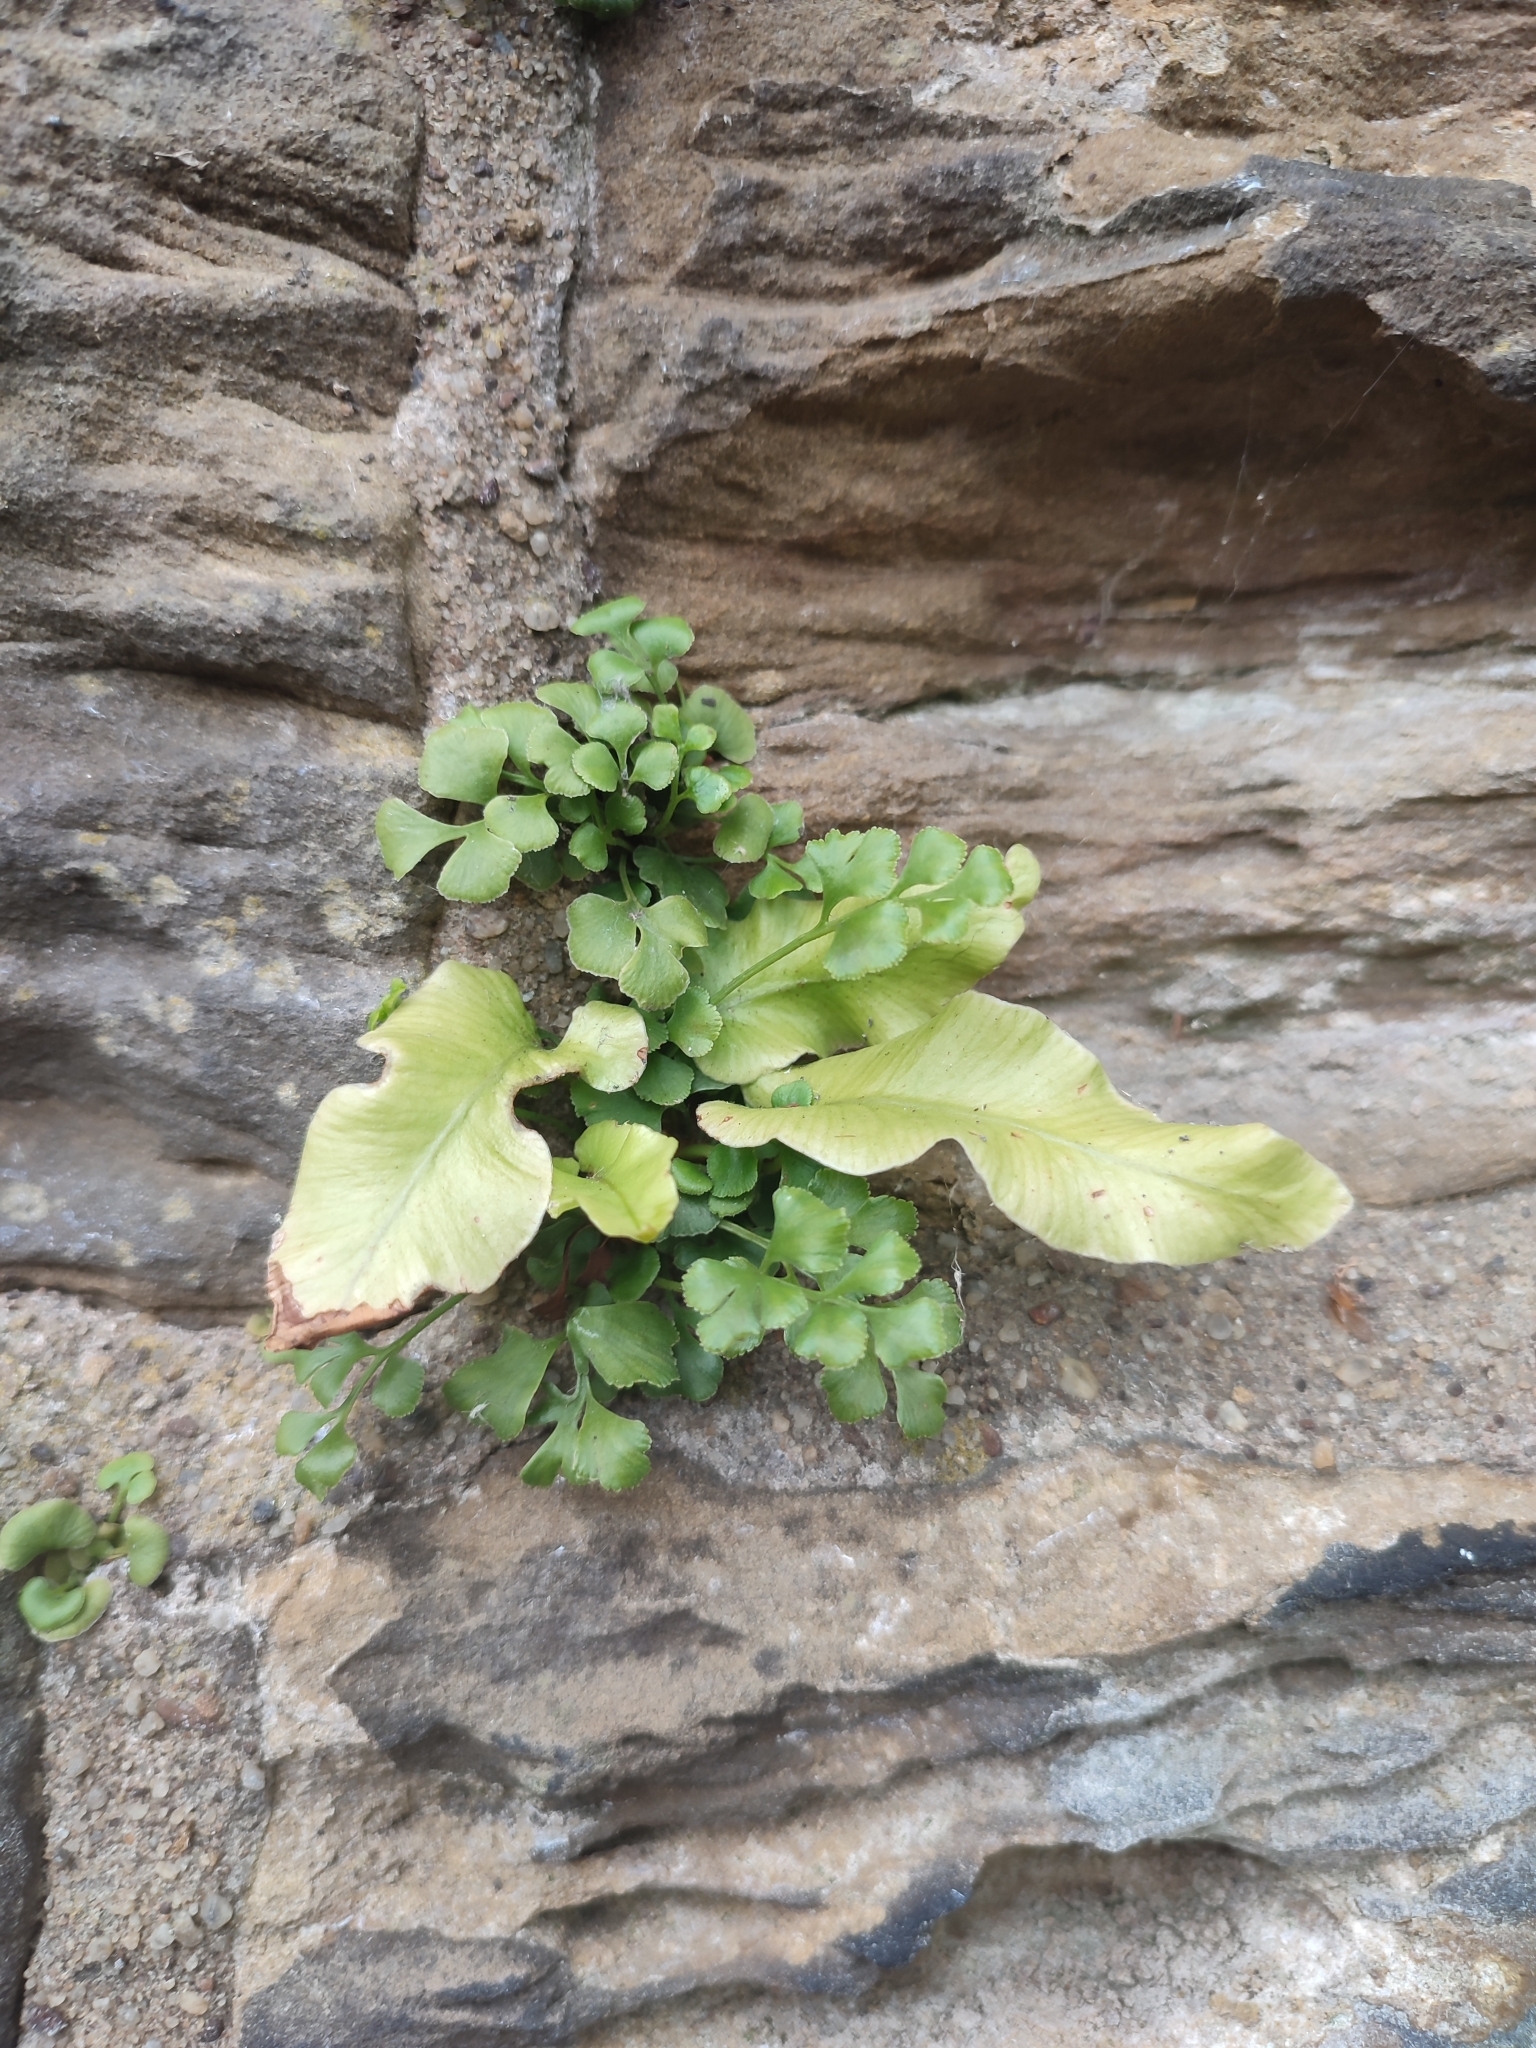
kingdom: Plantae
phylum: Tracheophyta
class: Polypodiopsida
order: Polypodiales
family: Aspleniaceae
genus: Asplenium
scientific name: Asplenium scolopendrium
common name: Hart's-tongue fern
